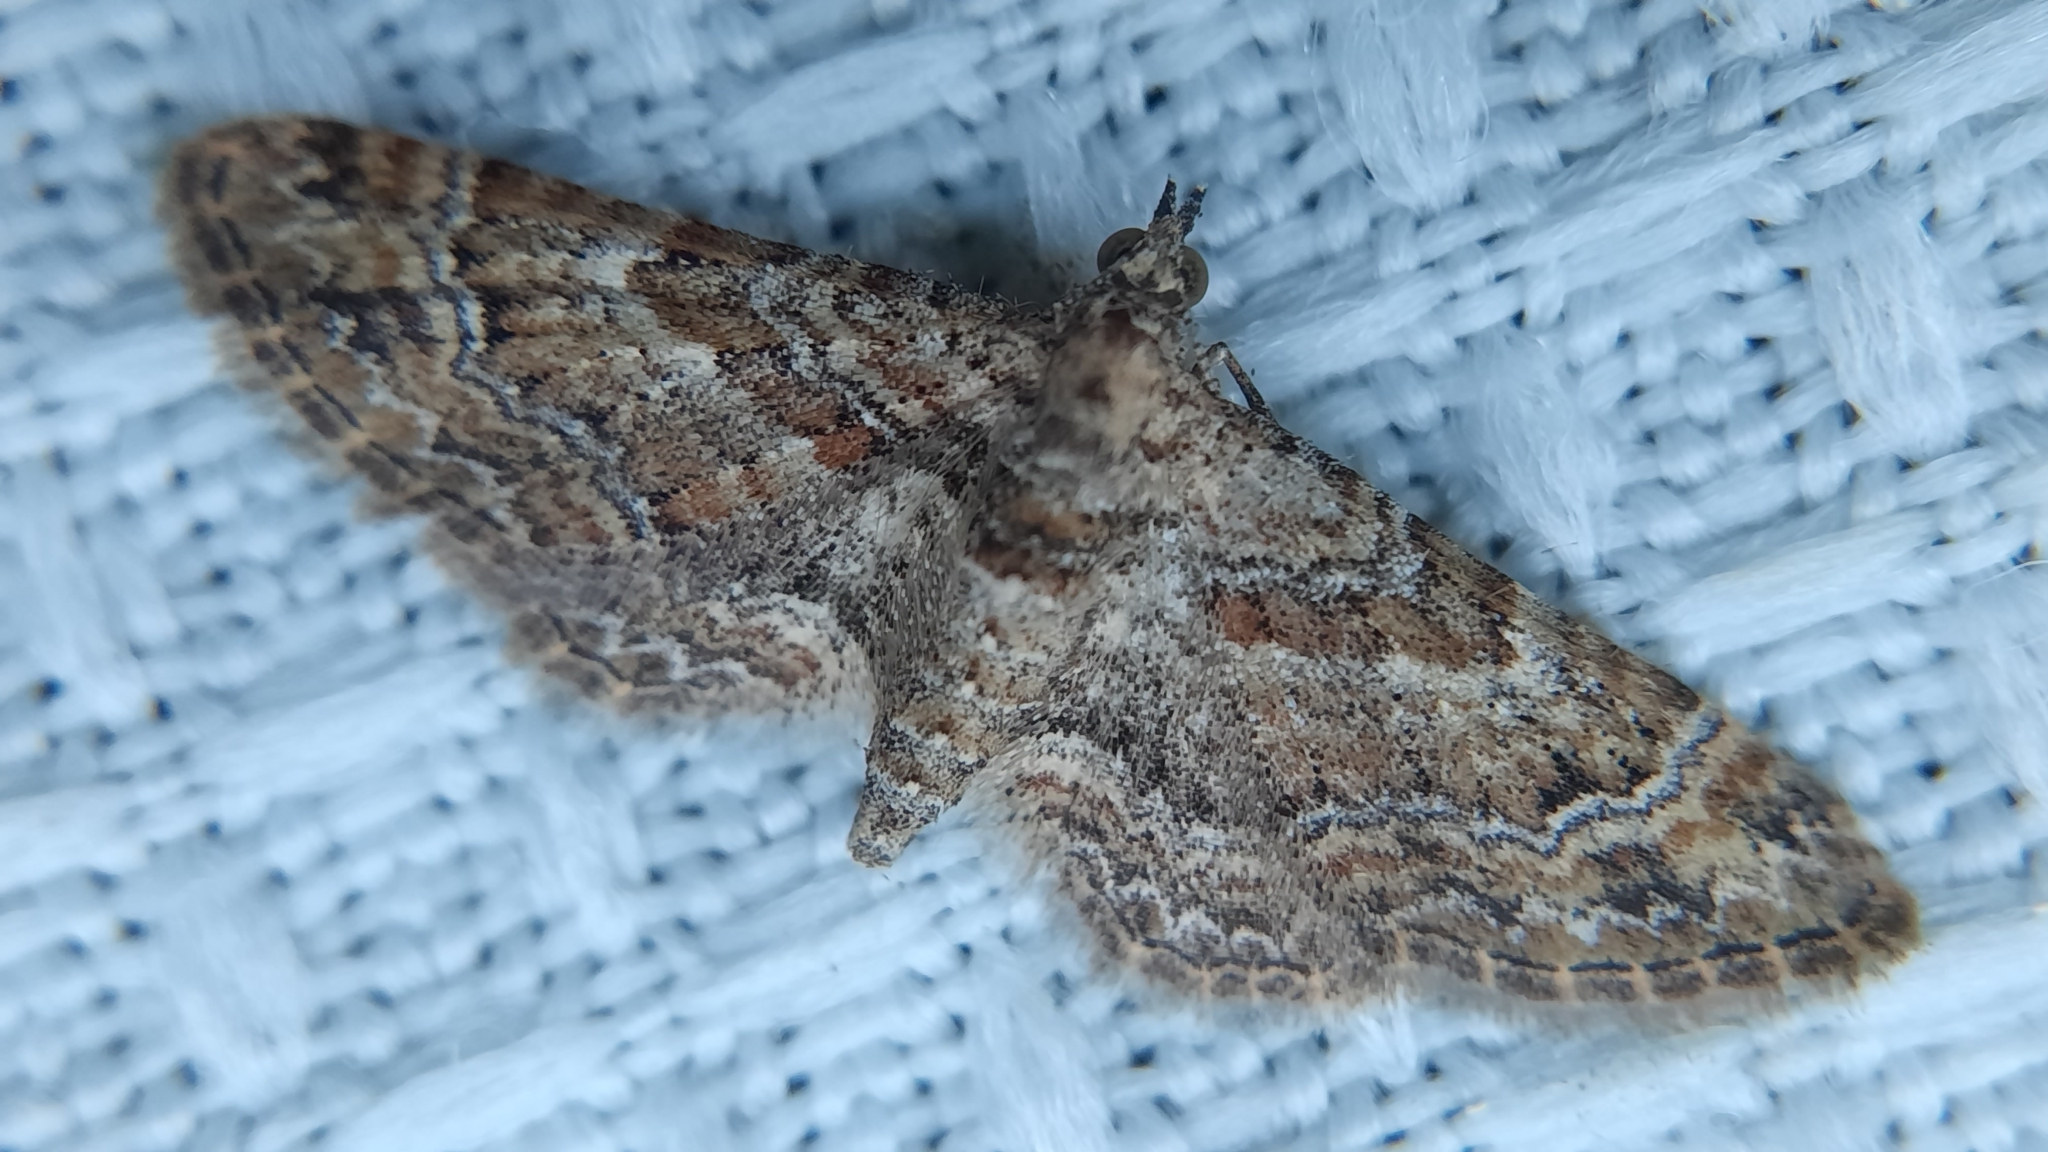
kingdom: Animalia
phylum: Arthropoda
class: Insecta
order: Lepidoptera
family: Geometridae
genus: Gymnoscelis
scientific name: Gymnoscelis rufifasciata
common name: Double-striped pug
